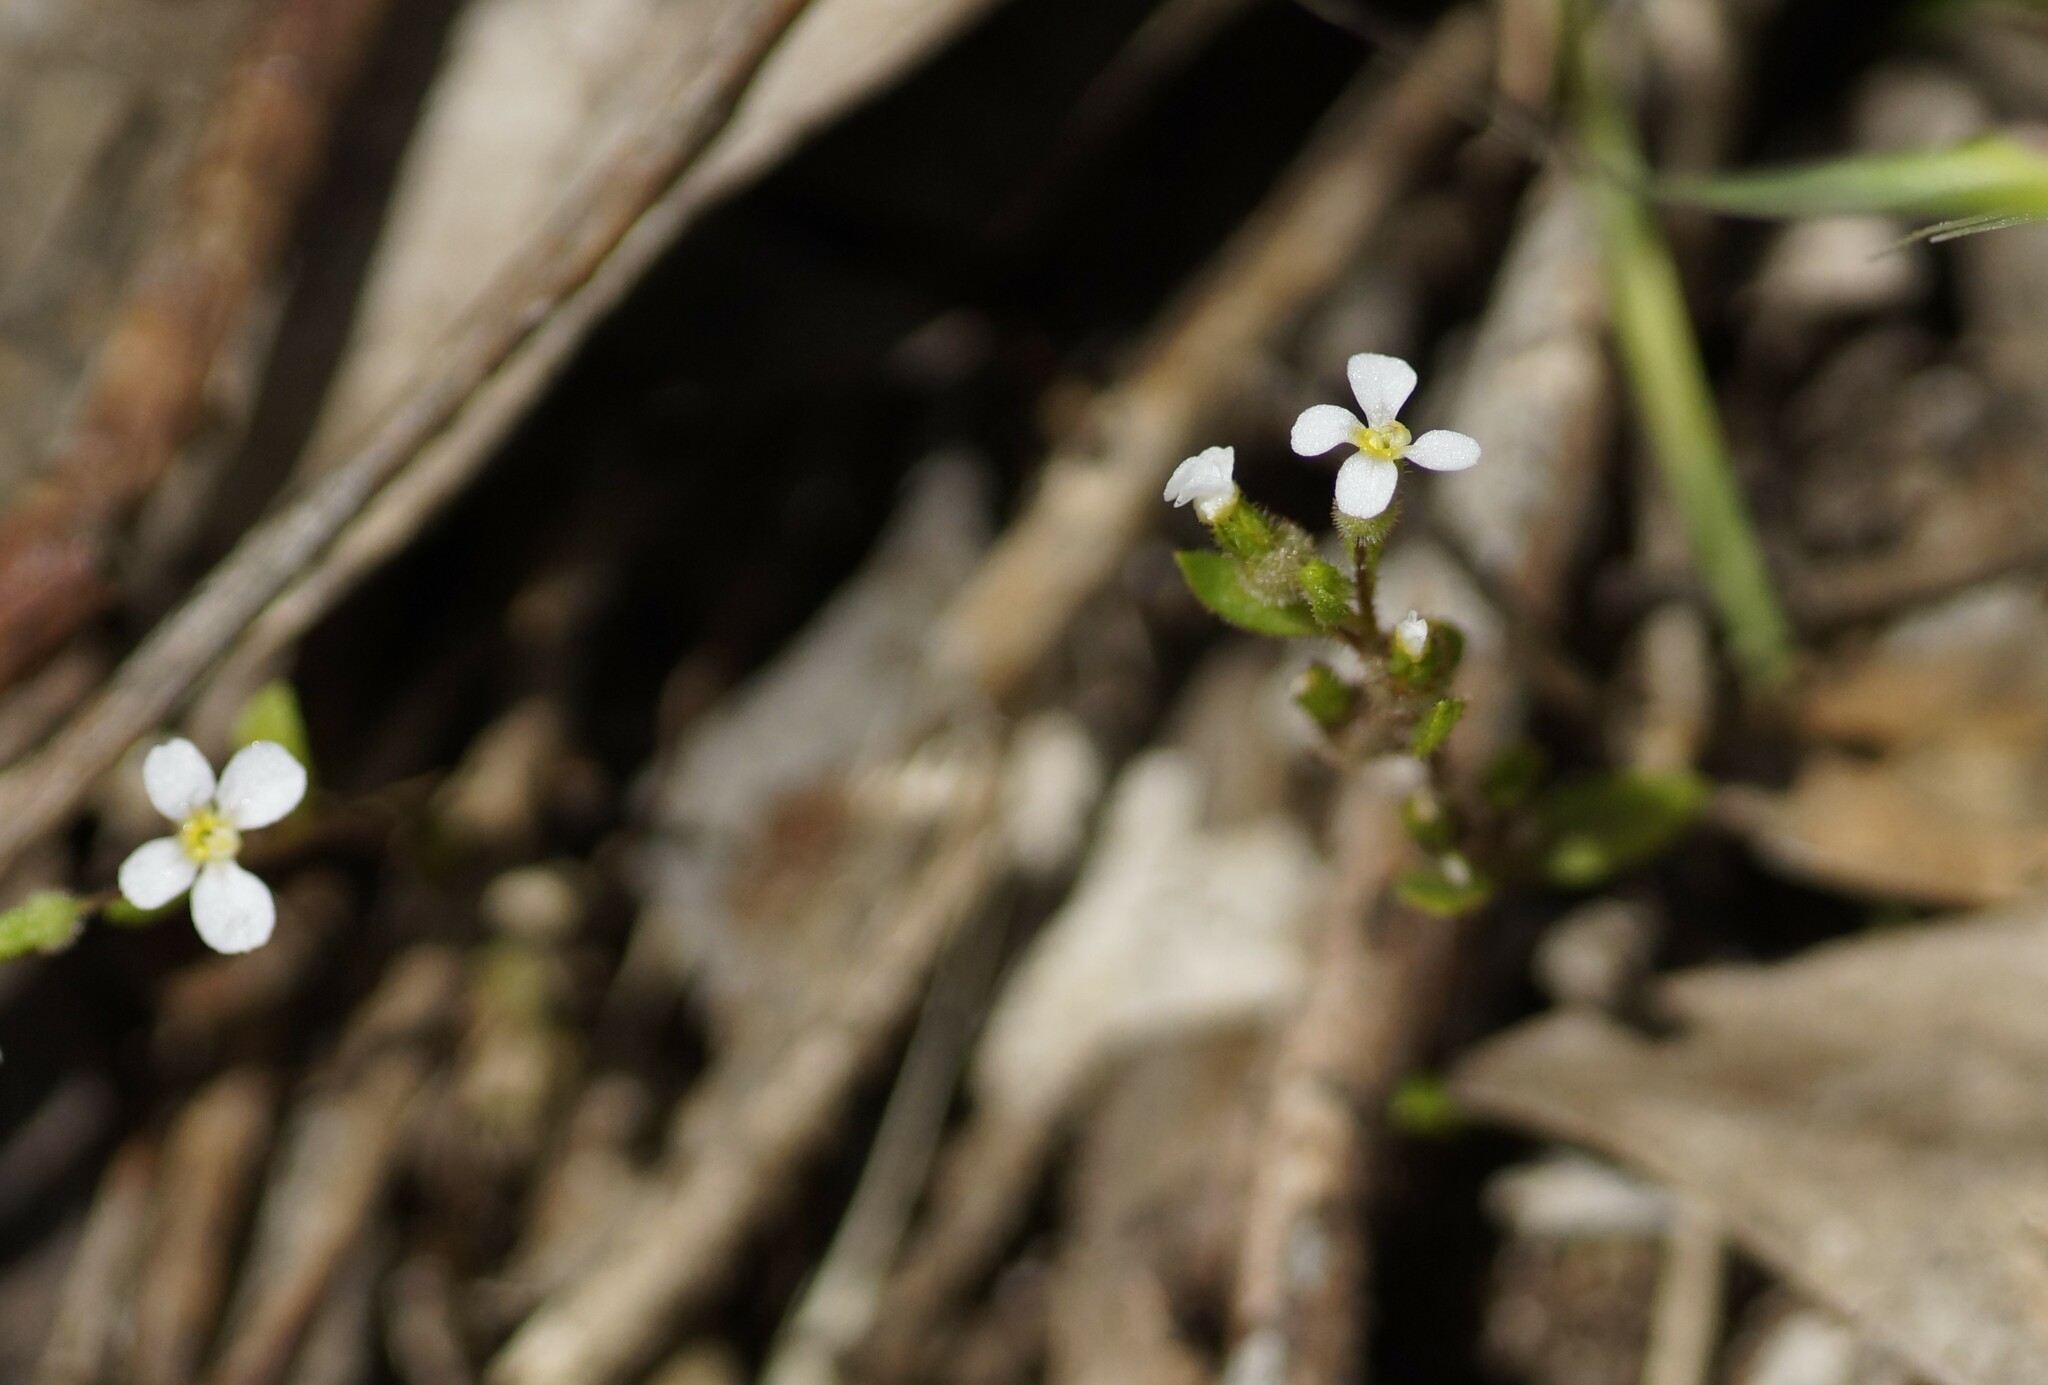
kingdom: Plantae
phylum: Tracheophyta
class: Magnoliopsida
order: Asterales
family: Stylidiaceae
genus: Levenhookia
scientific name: Levenhookia dubia
